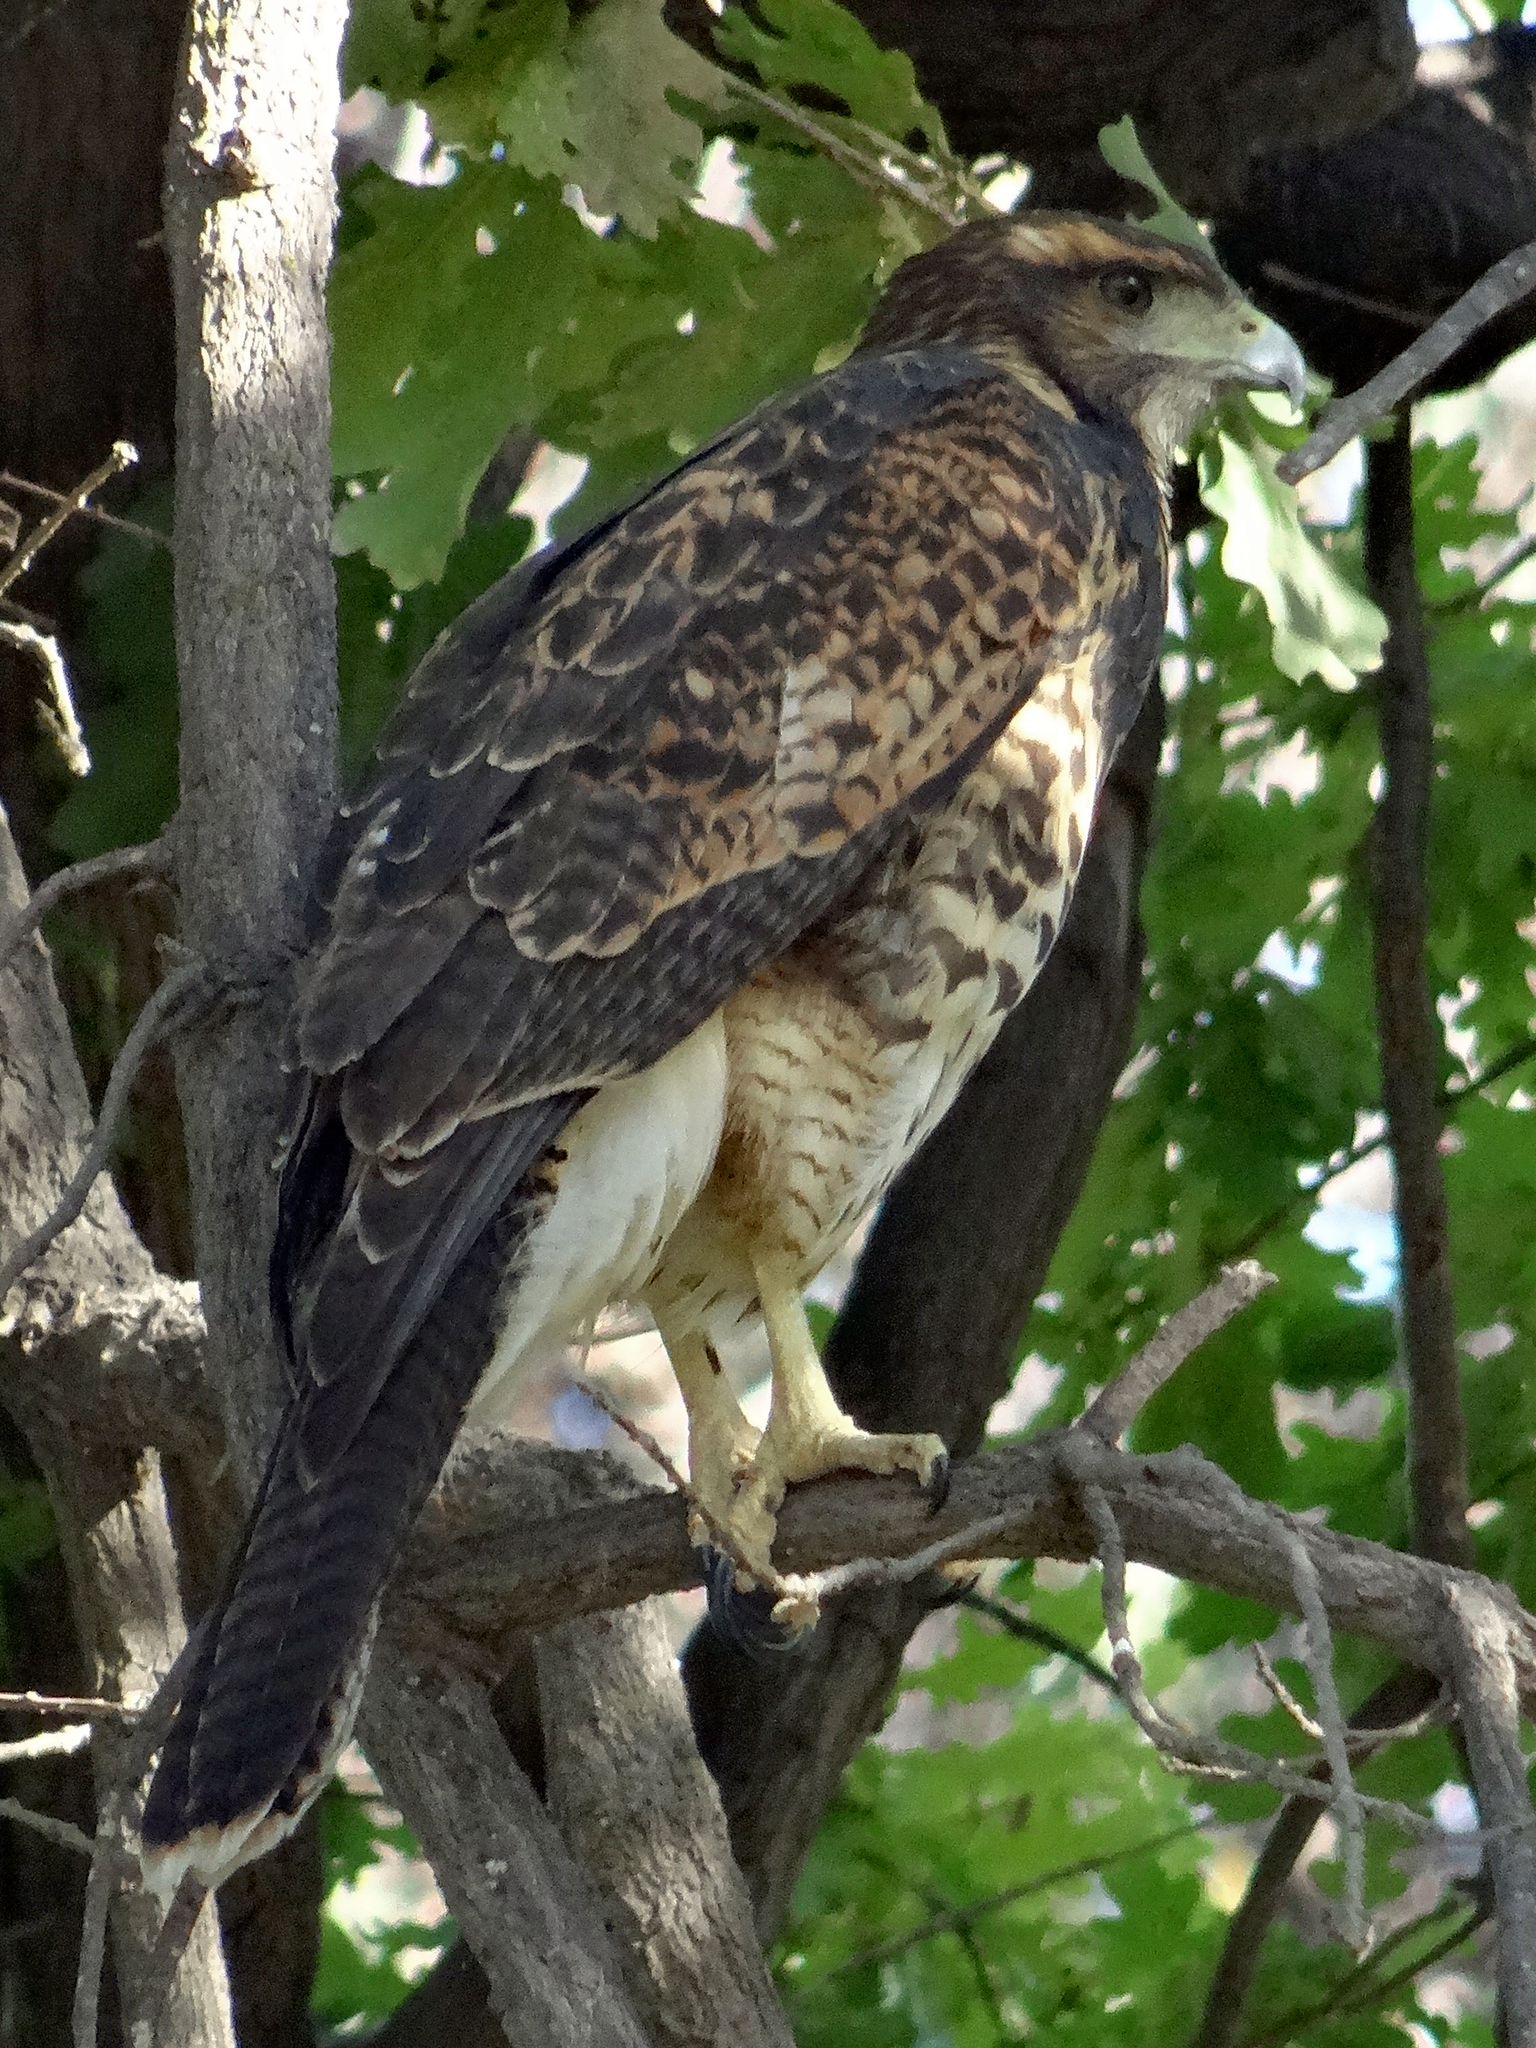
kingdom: Animalia
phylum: Chordata
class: Aves
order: Accipitriformes
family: Accipitridae
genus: Parabuteo
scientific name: Parabuteo unicinctus
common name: Harris's hawk
